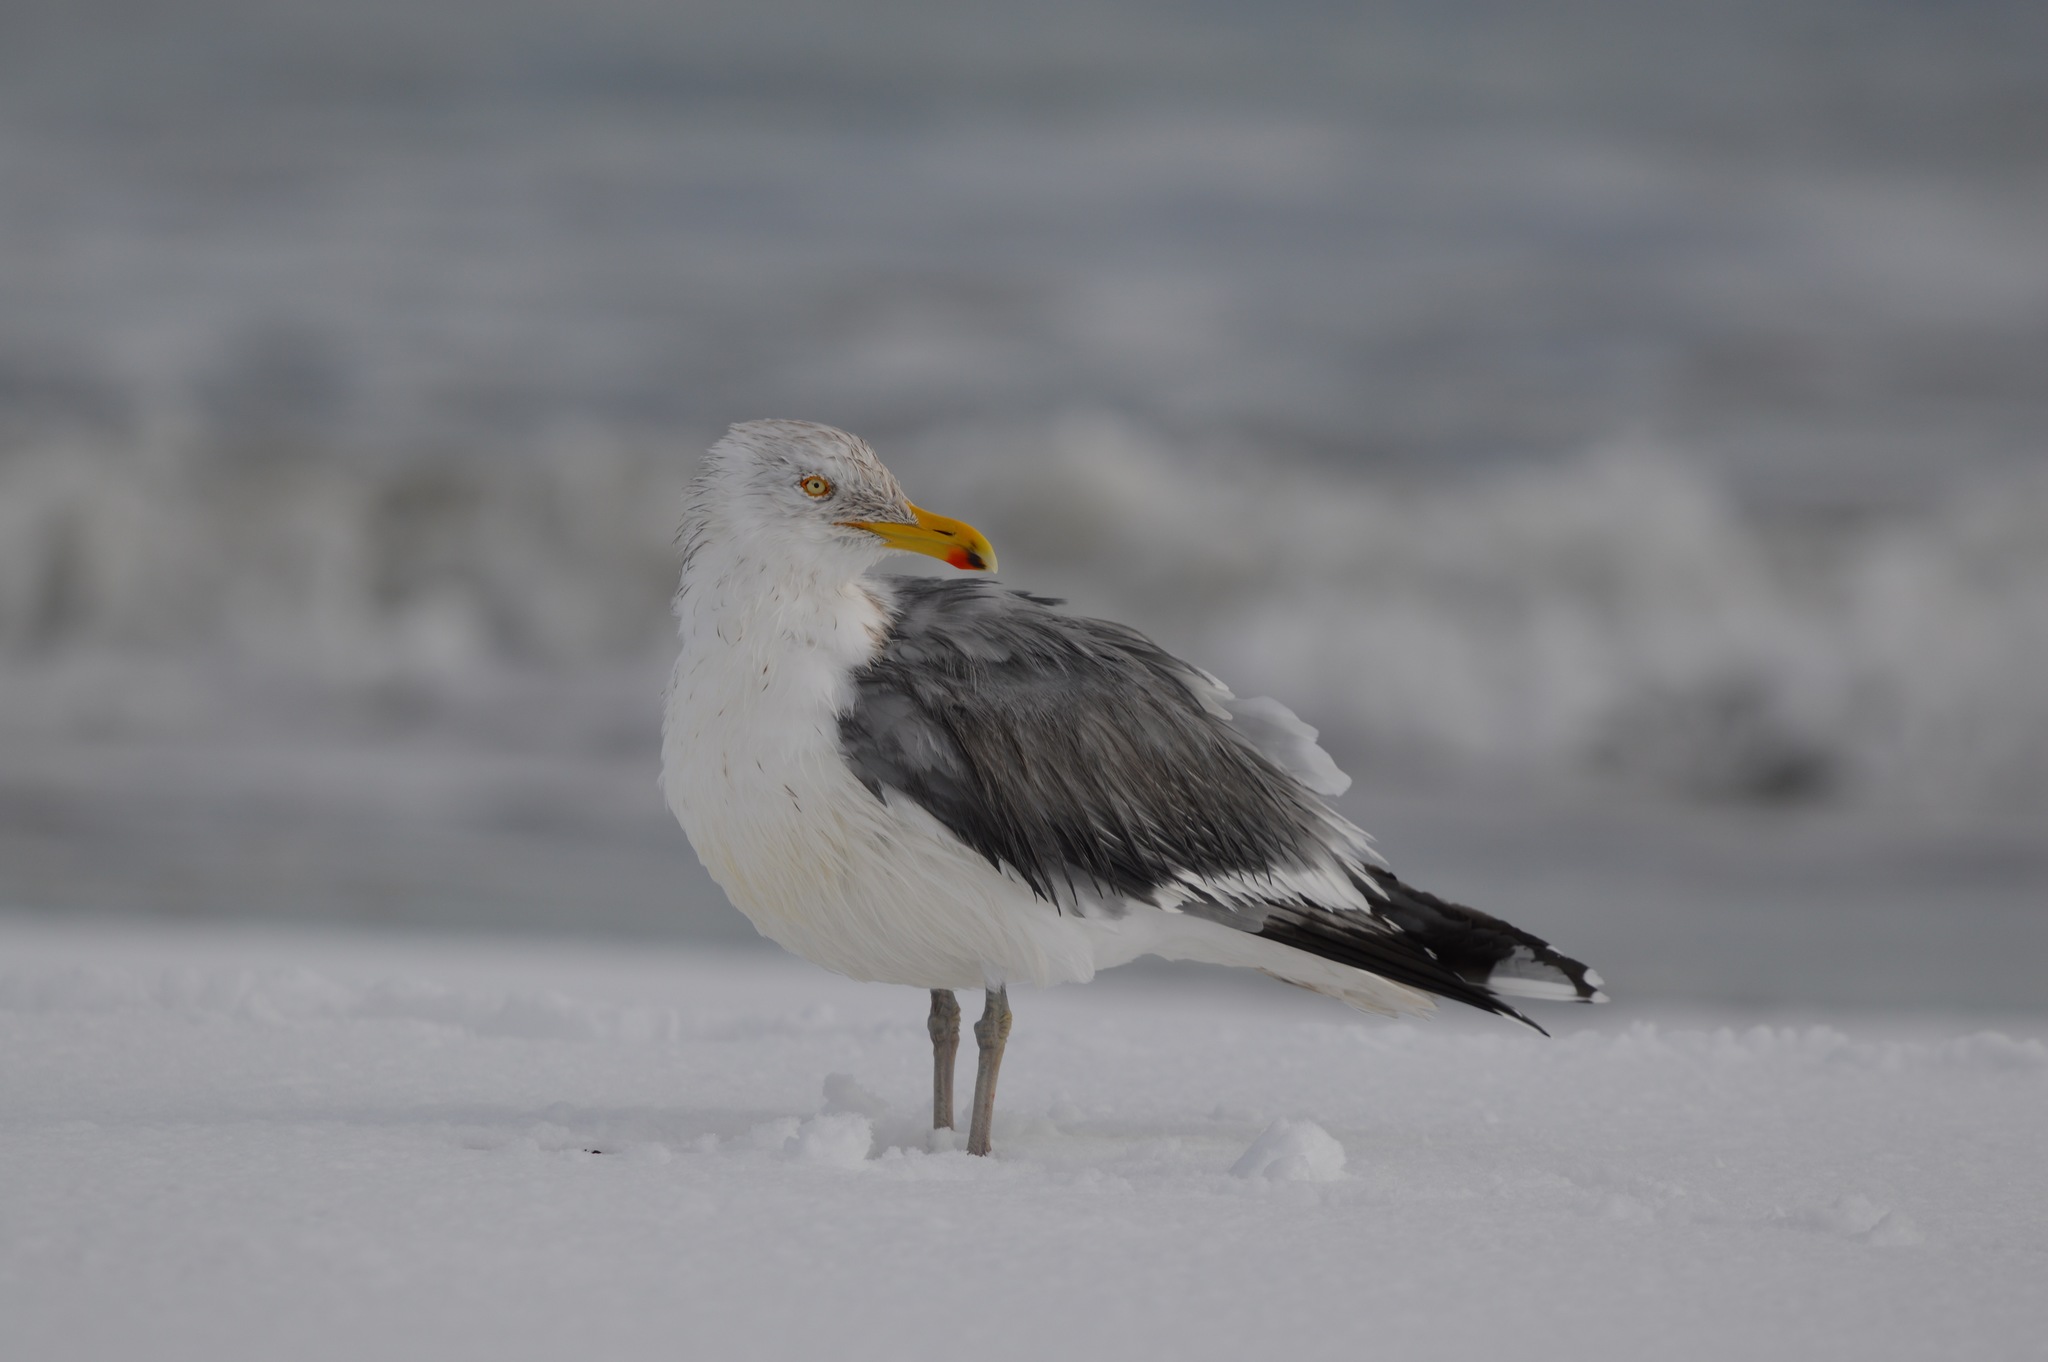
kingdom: Animalia
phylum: Chordata
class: Aves
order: Charadriiformes
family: Laridae
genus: Larus
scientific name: Larus argentatus
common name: Herring gull
